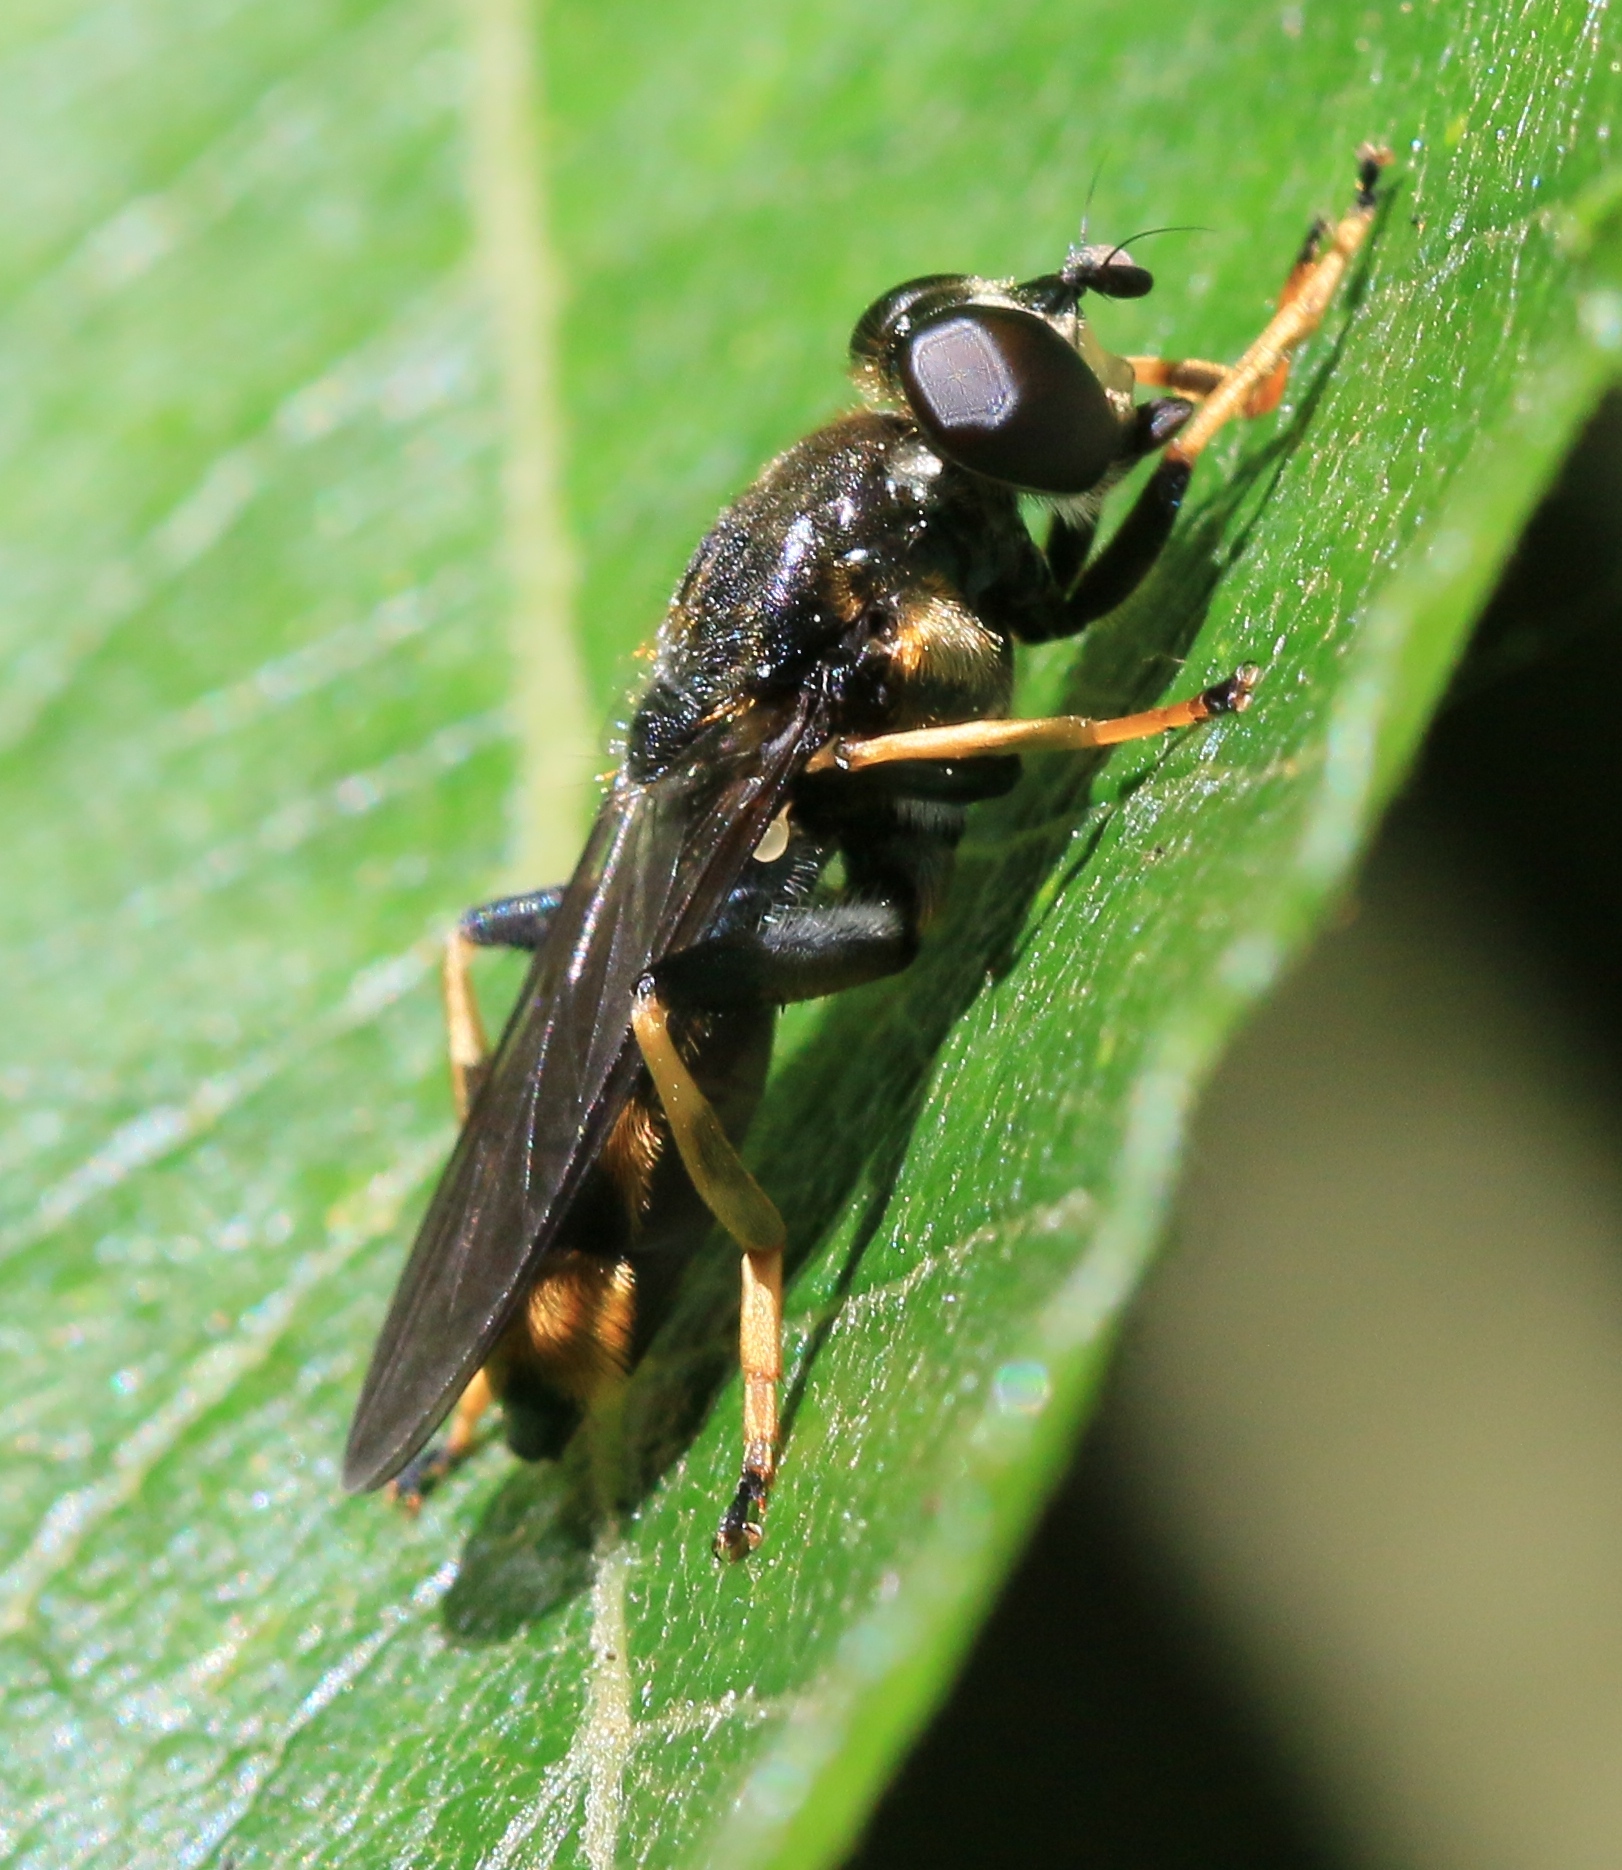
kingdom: Animalia
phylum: Arthropoda
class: Insecta
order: Diptera
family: Syrphidae
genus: Xylota
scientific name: Xylota sylvarum
